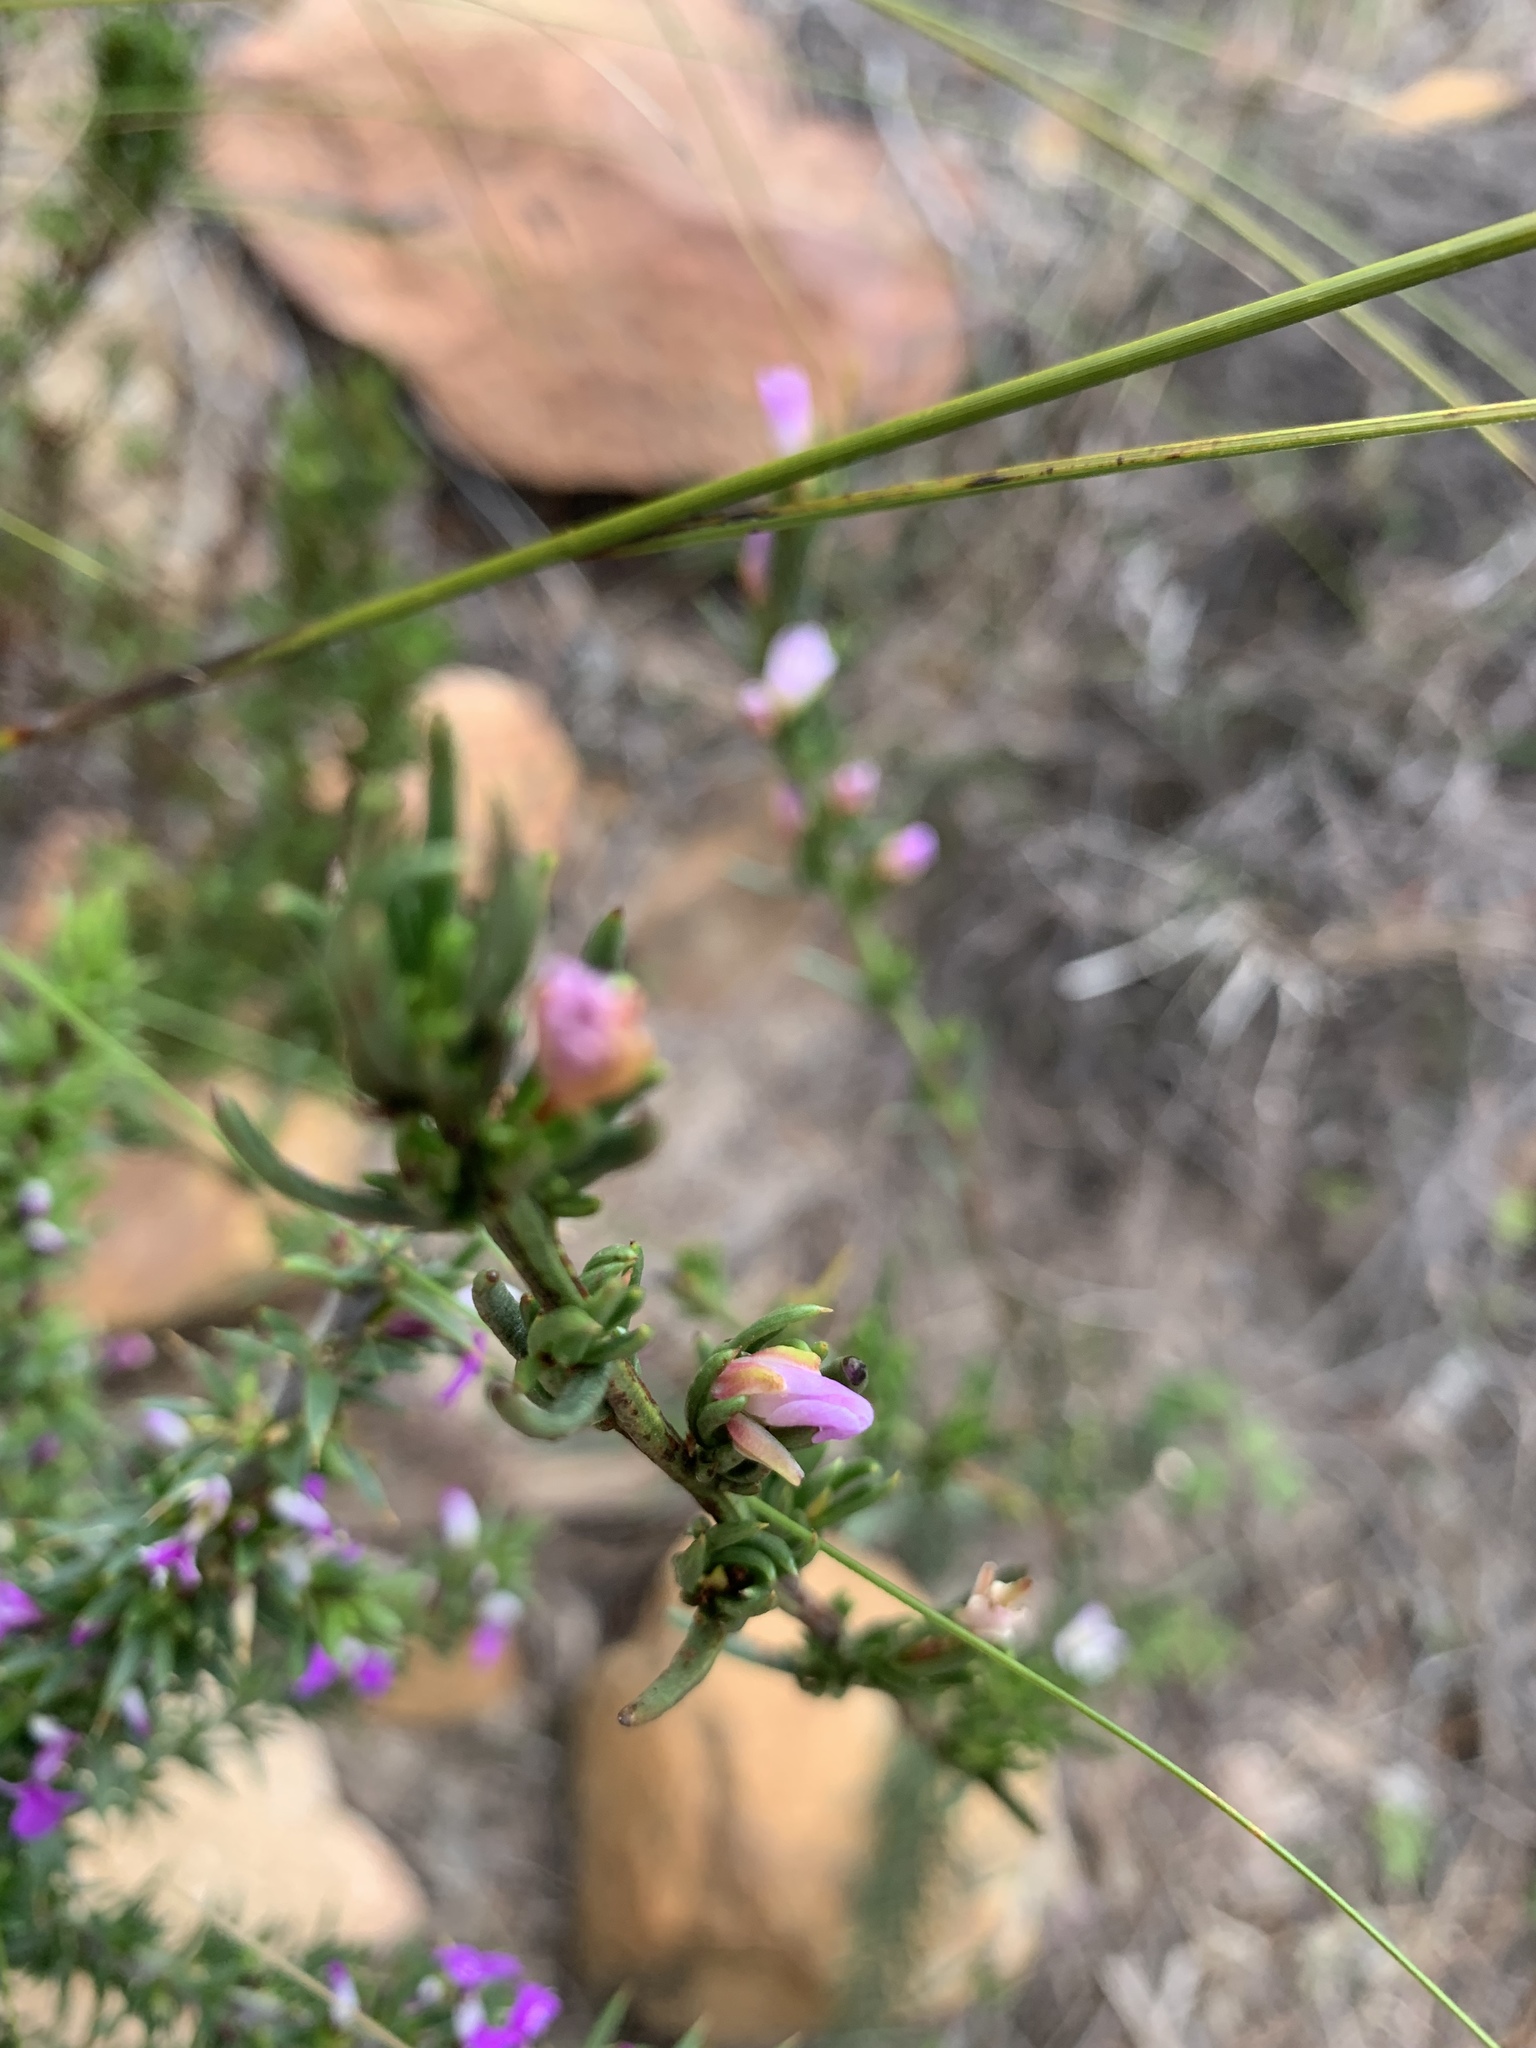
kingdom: Plantae
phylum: Tracheophyta
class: Magnoliopsida
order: Brassicales
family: Brassicaceae
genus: Heliophila
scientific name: Heliophila scoparia
